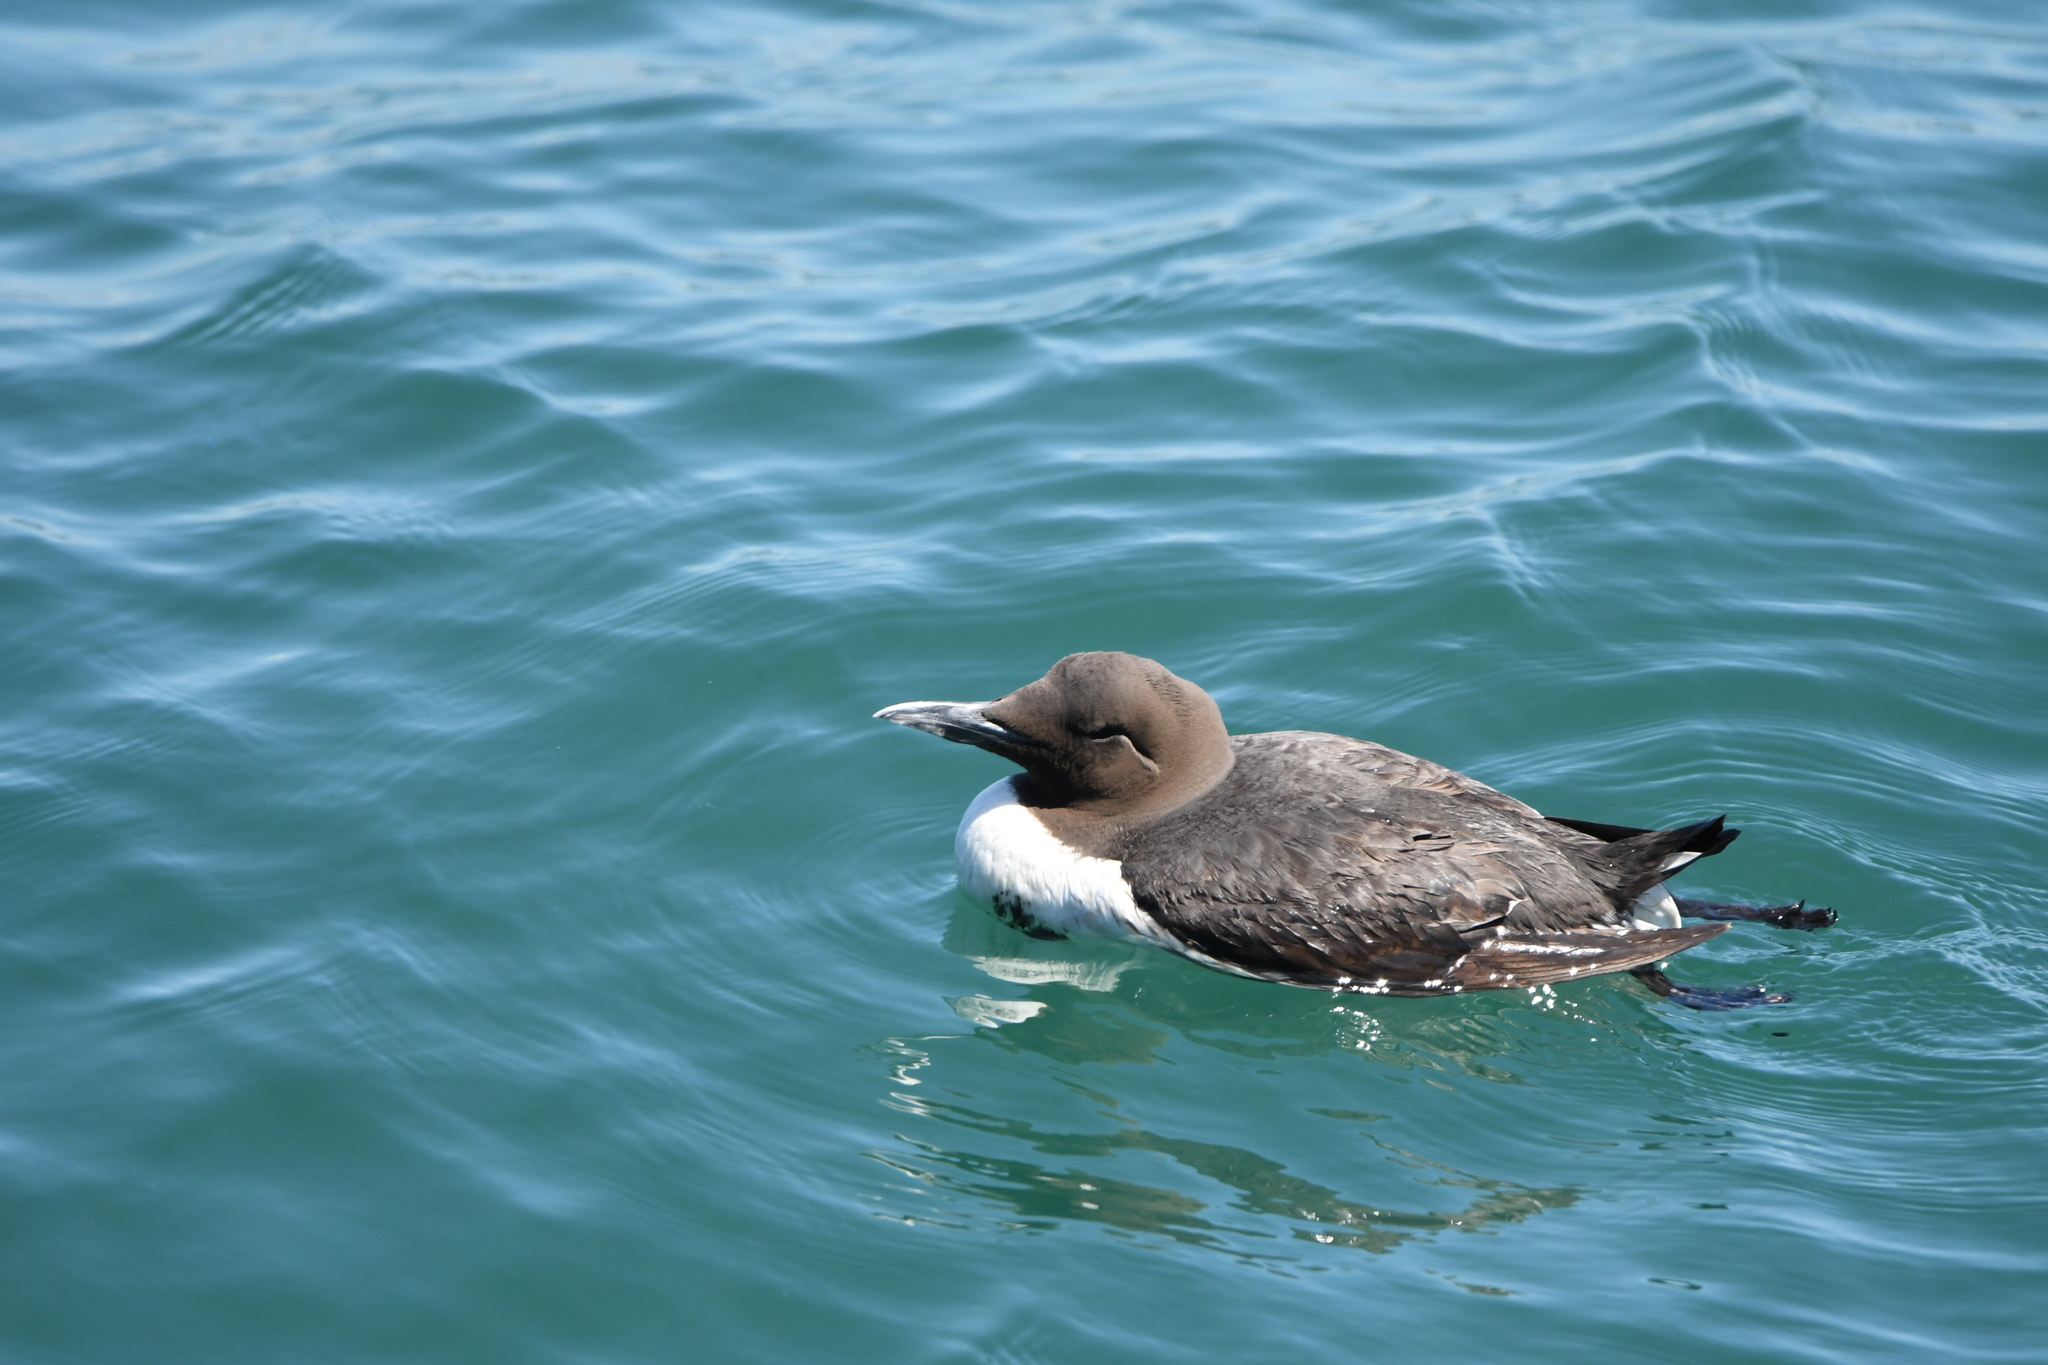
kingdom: Animalia
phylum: Chordata
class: Aves
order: Charadriiformes
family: Alcidae
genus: Uria
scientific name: Uria aalge
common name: Common murre
